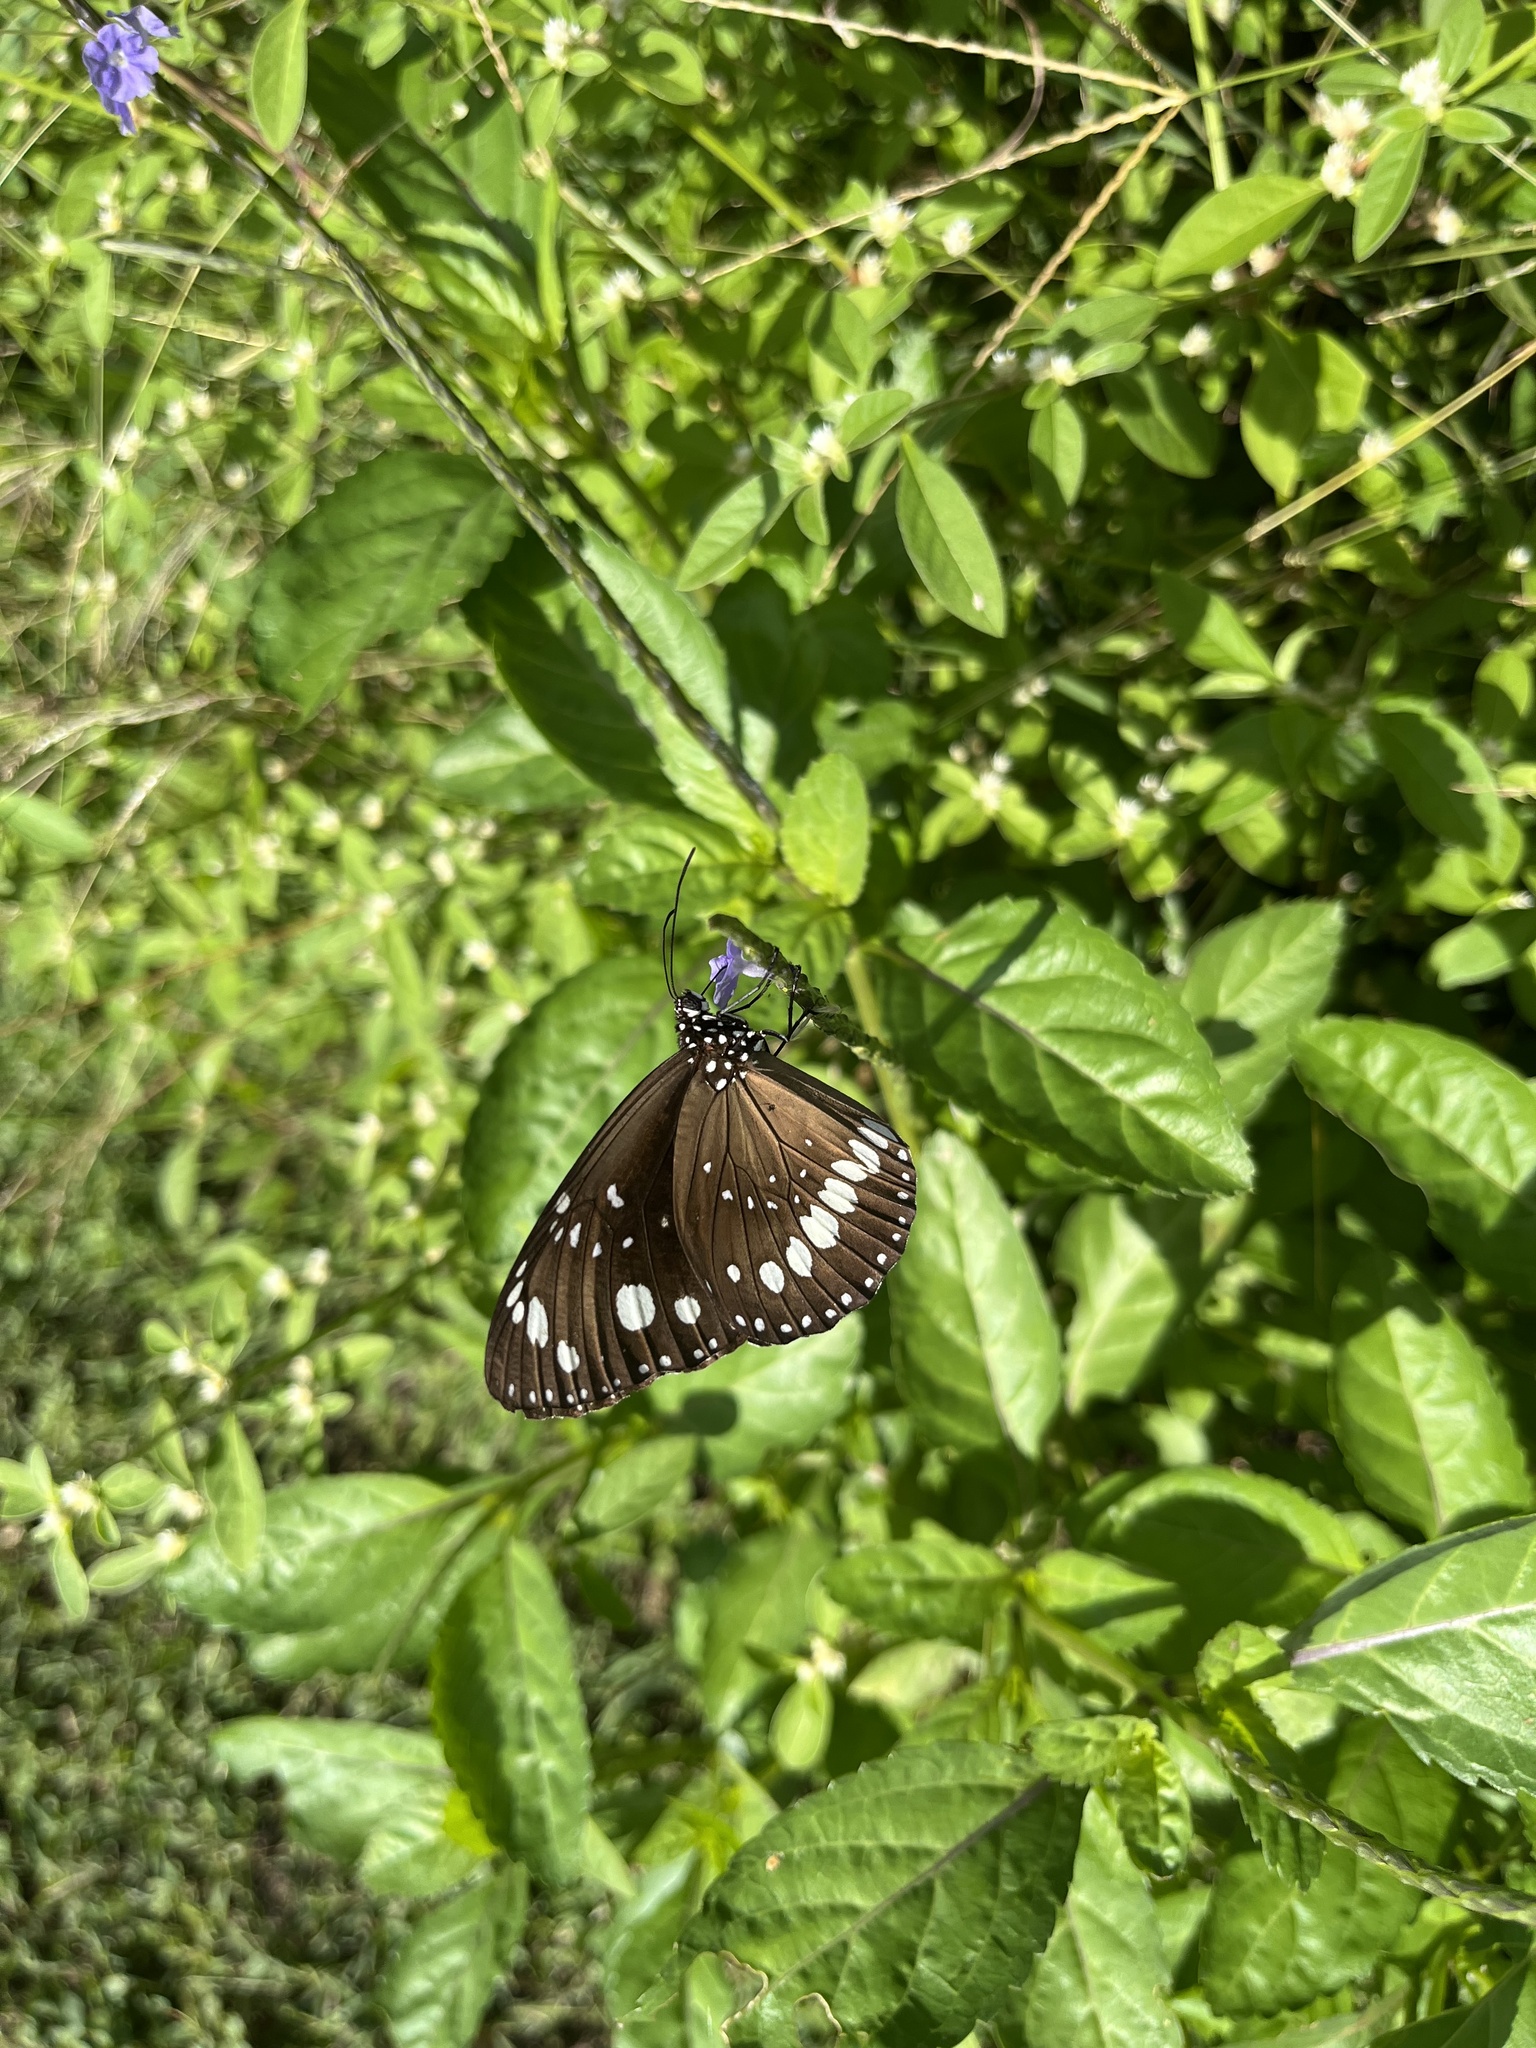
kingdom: Animalia
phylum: Arthropoda
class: Insecta
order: Lepidoptera
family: Nymphalidae
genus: Euploea
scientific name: Euploea core
